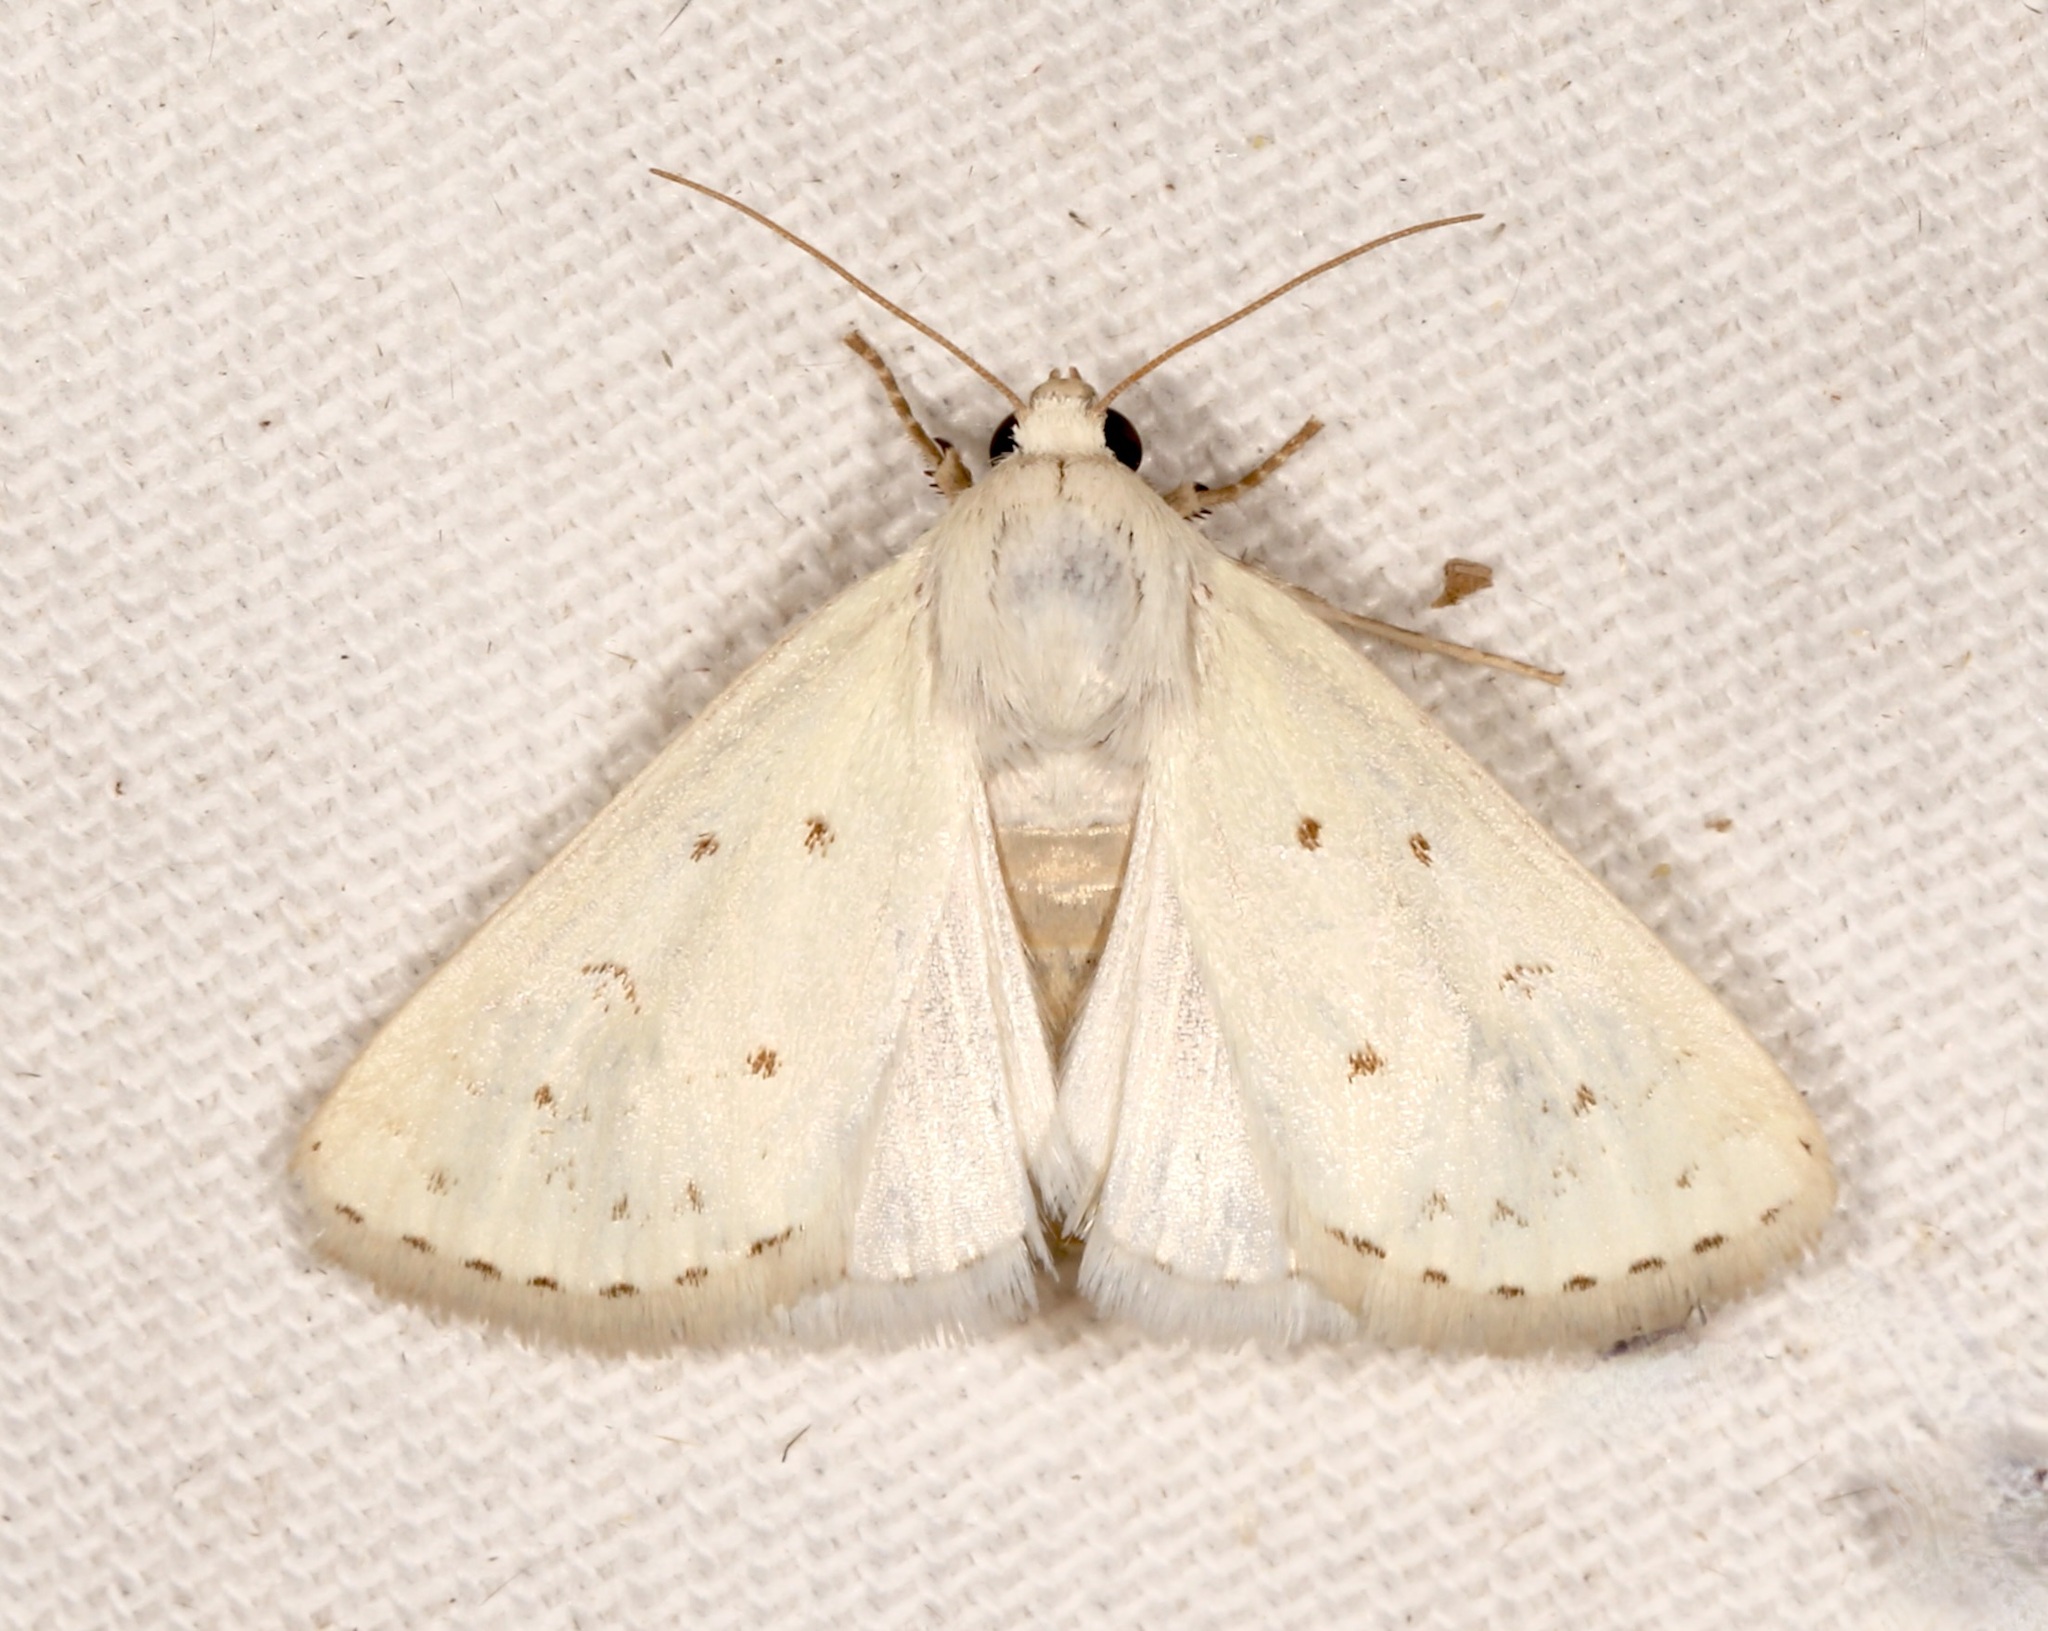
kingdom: Animalia
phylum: Arthropoda
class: Insecta
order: Lepidoptera
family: Noctuidae
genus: Schinia
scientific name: Schinia luxa
